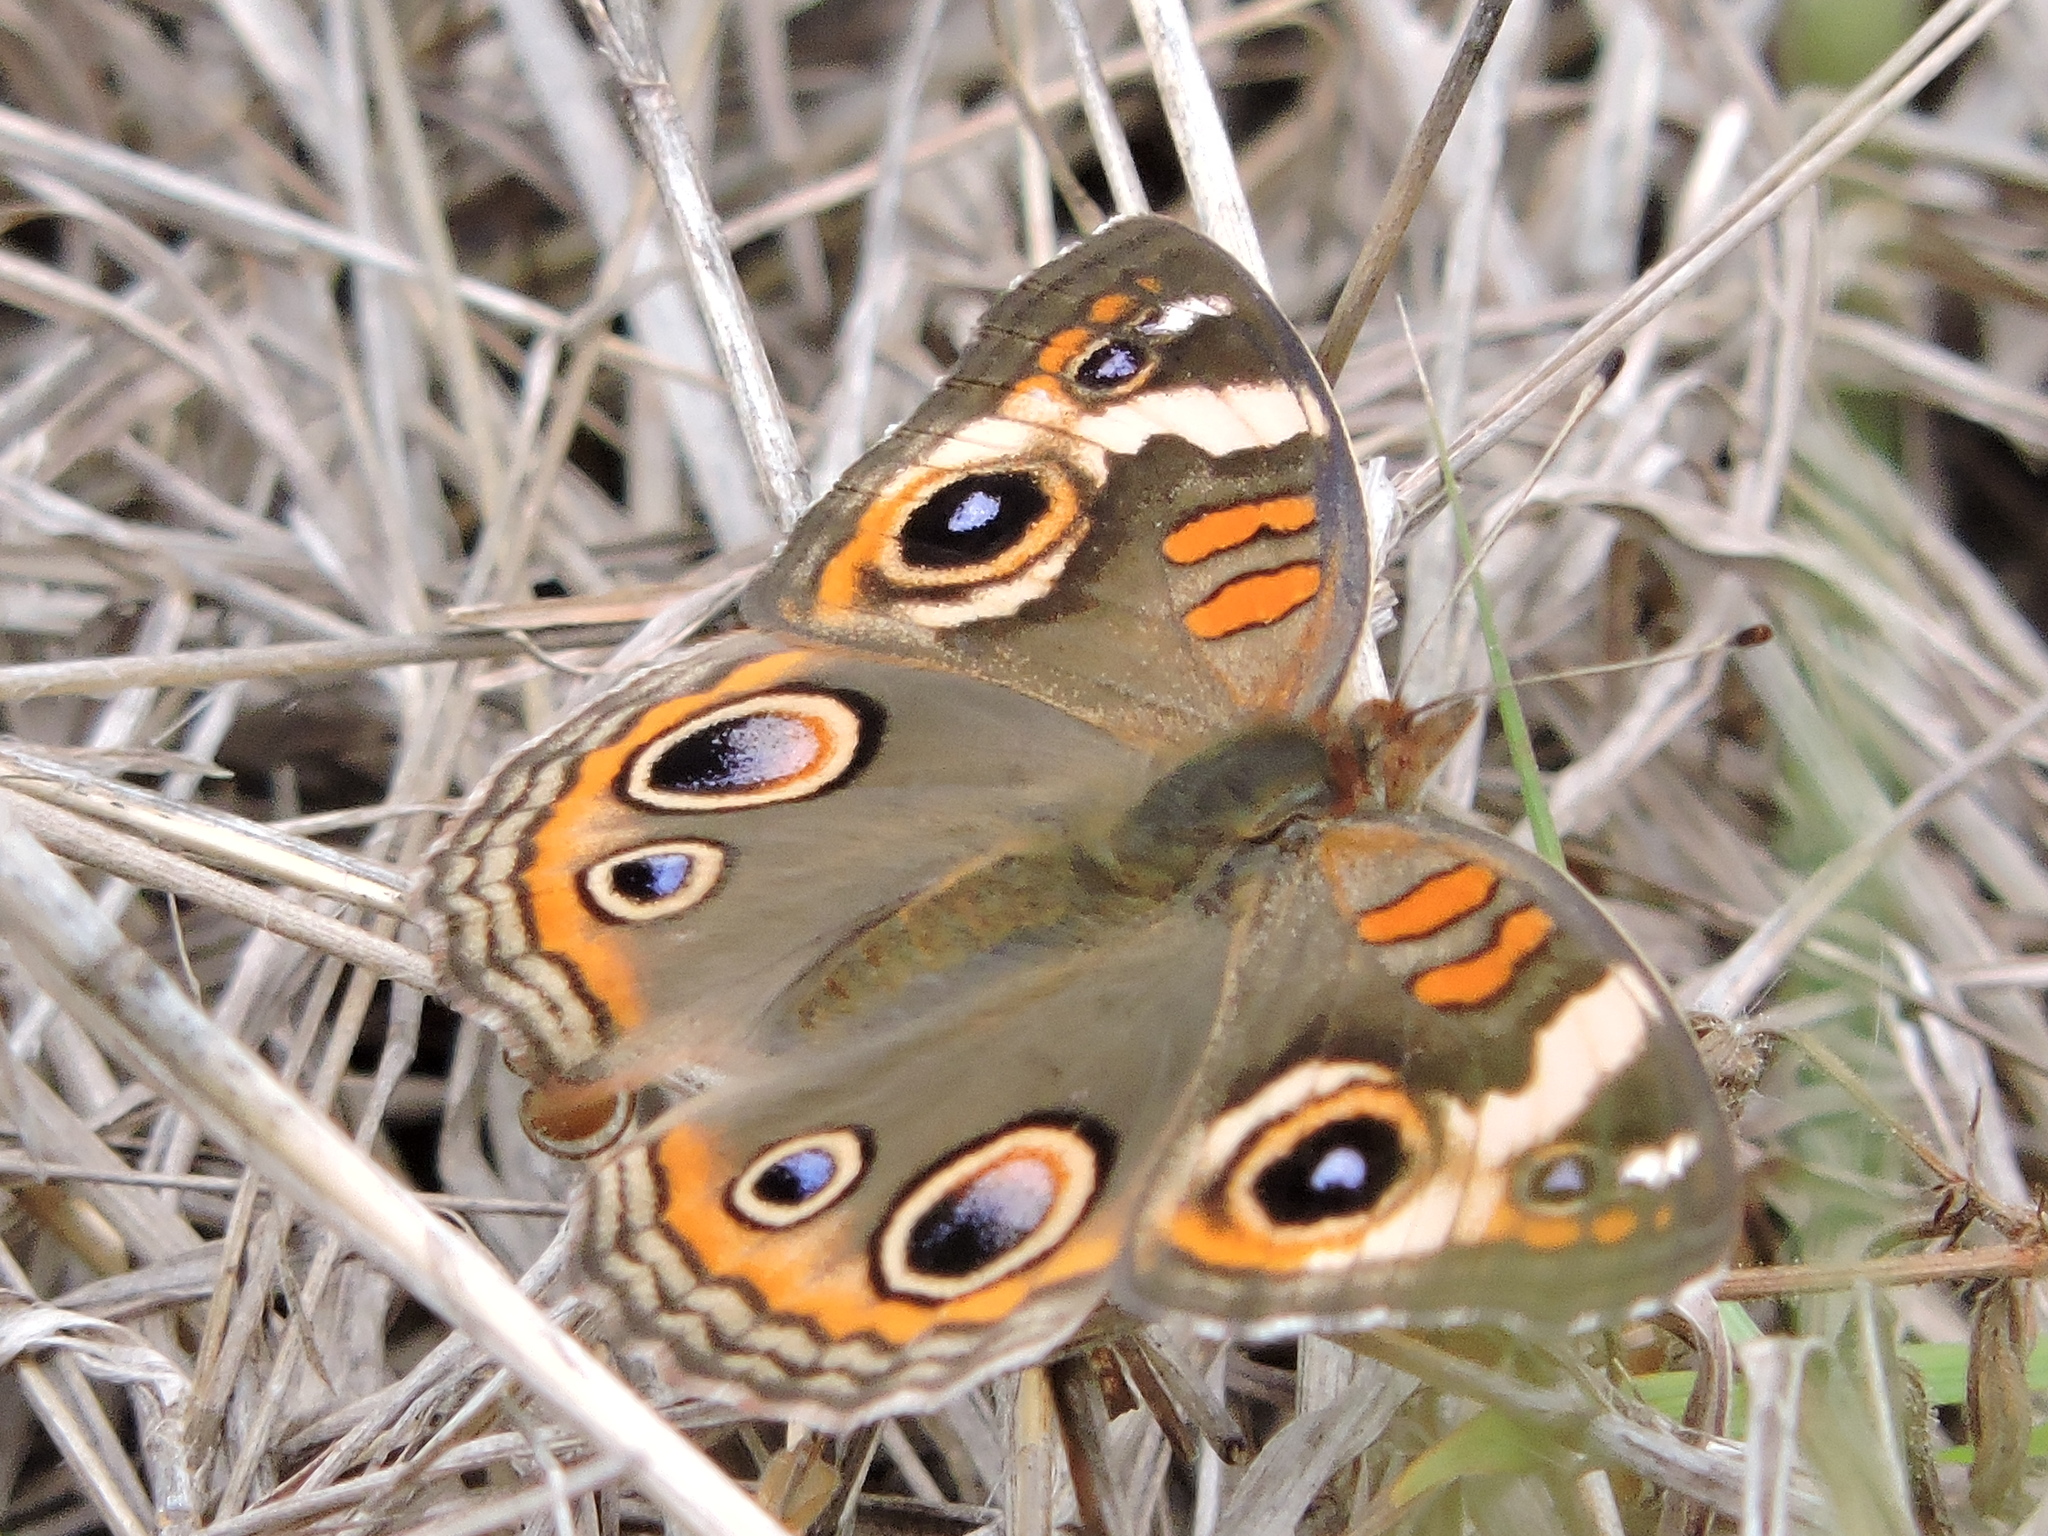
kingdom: Animalia
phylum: Arthropoda
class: Insecta
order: Lepidoptera
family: Nymphalidae
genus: Junonia
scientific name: Junonia coenia
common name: Common buckeye
